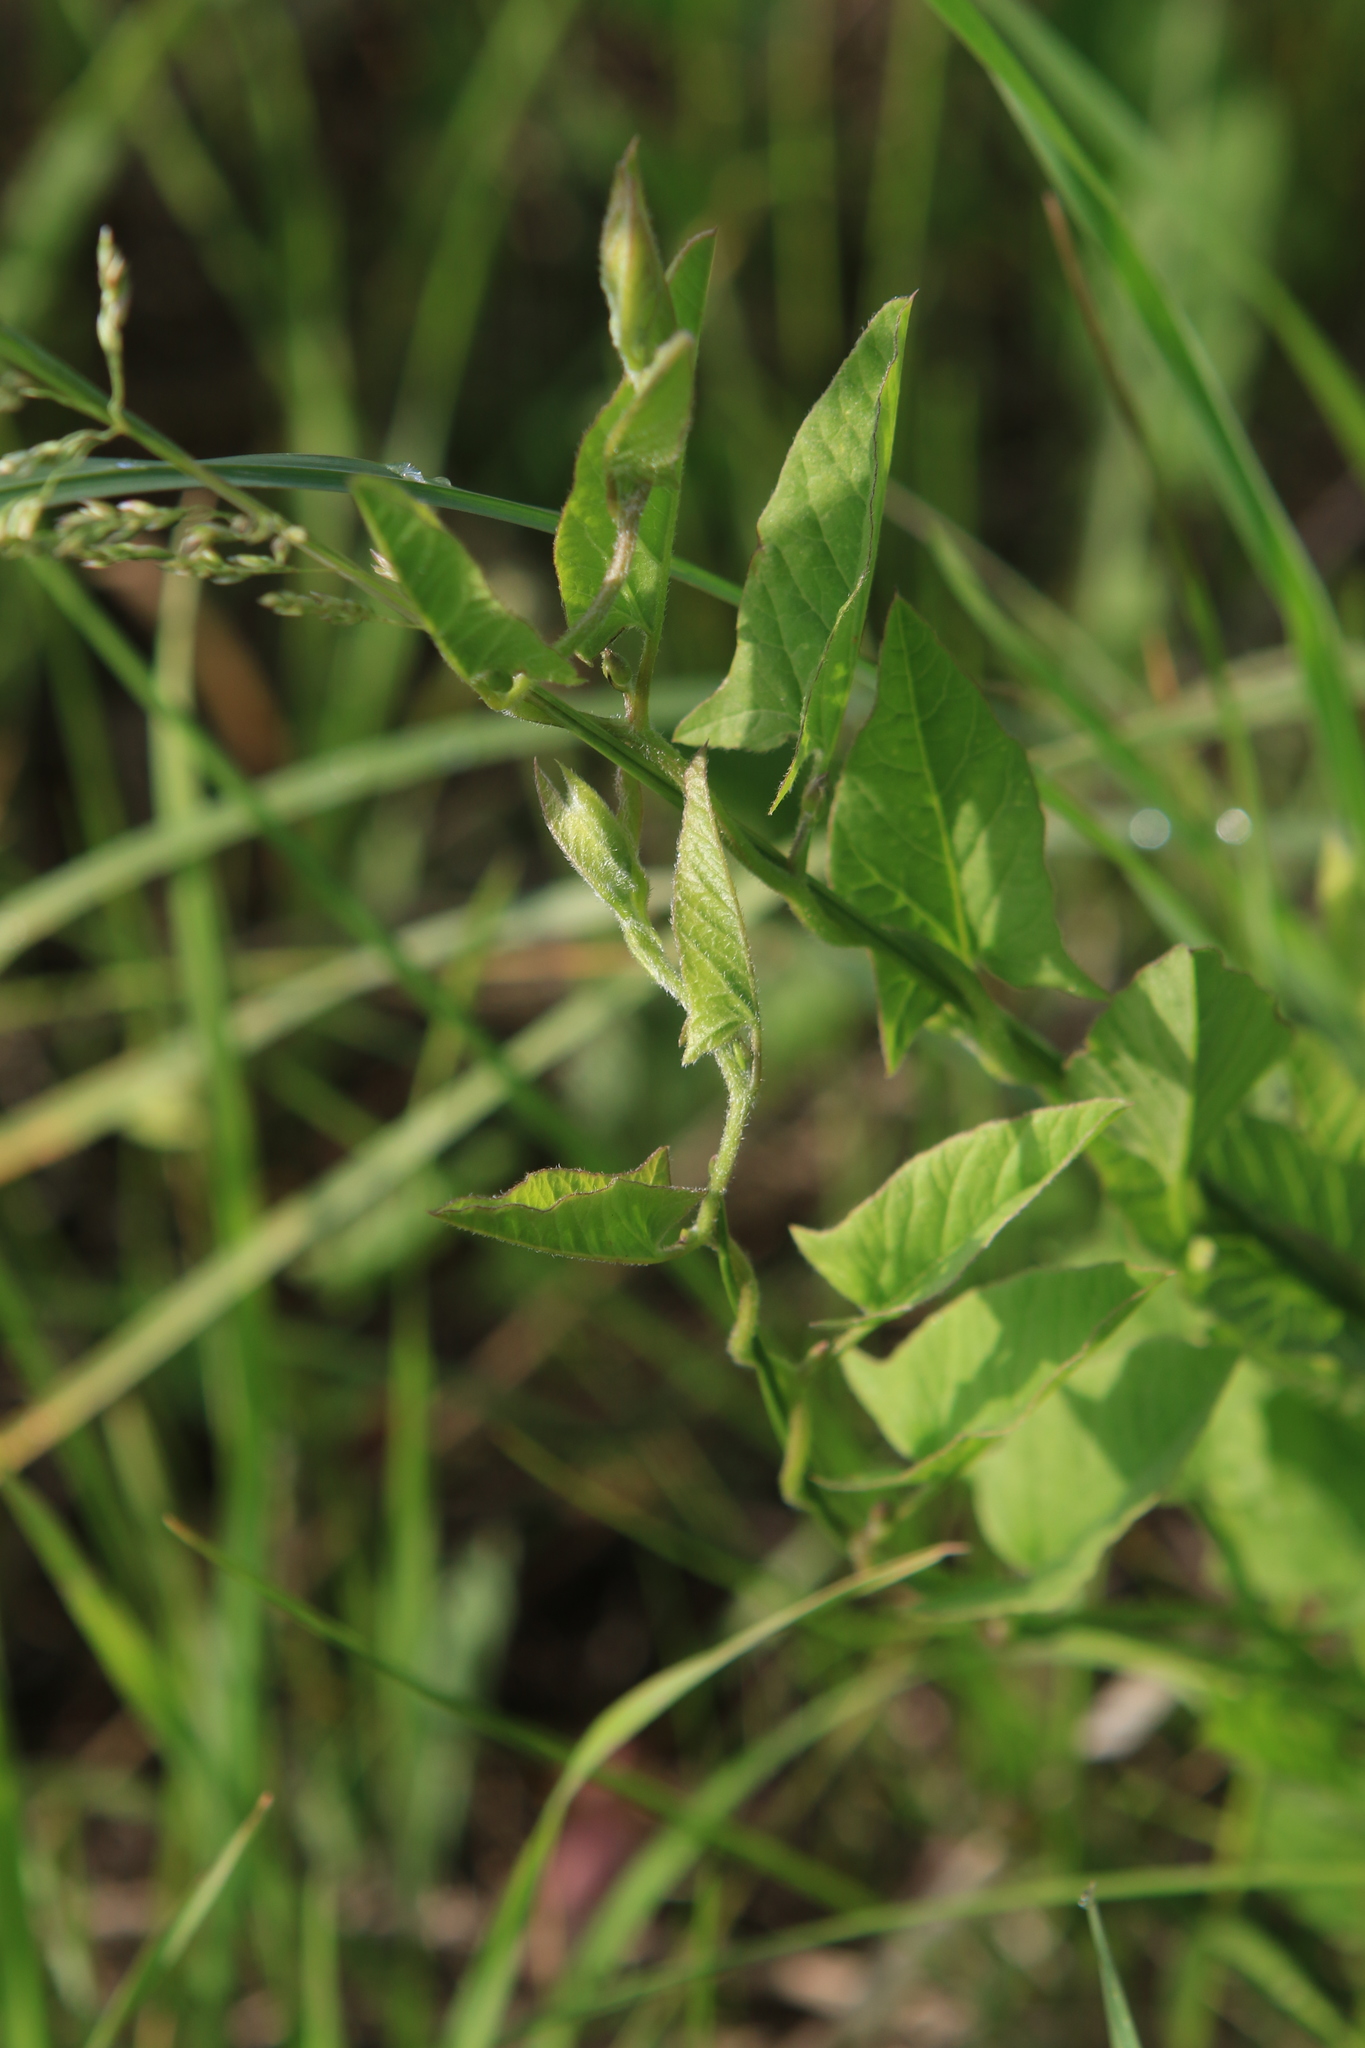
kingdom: Plantae
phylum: Tracheophyta
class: Magnoliopsida
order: Solanales
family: Convolvulaceae
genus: Convolvulus
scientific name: Convolvulus arvensis
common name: Field bindweed
